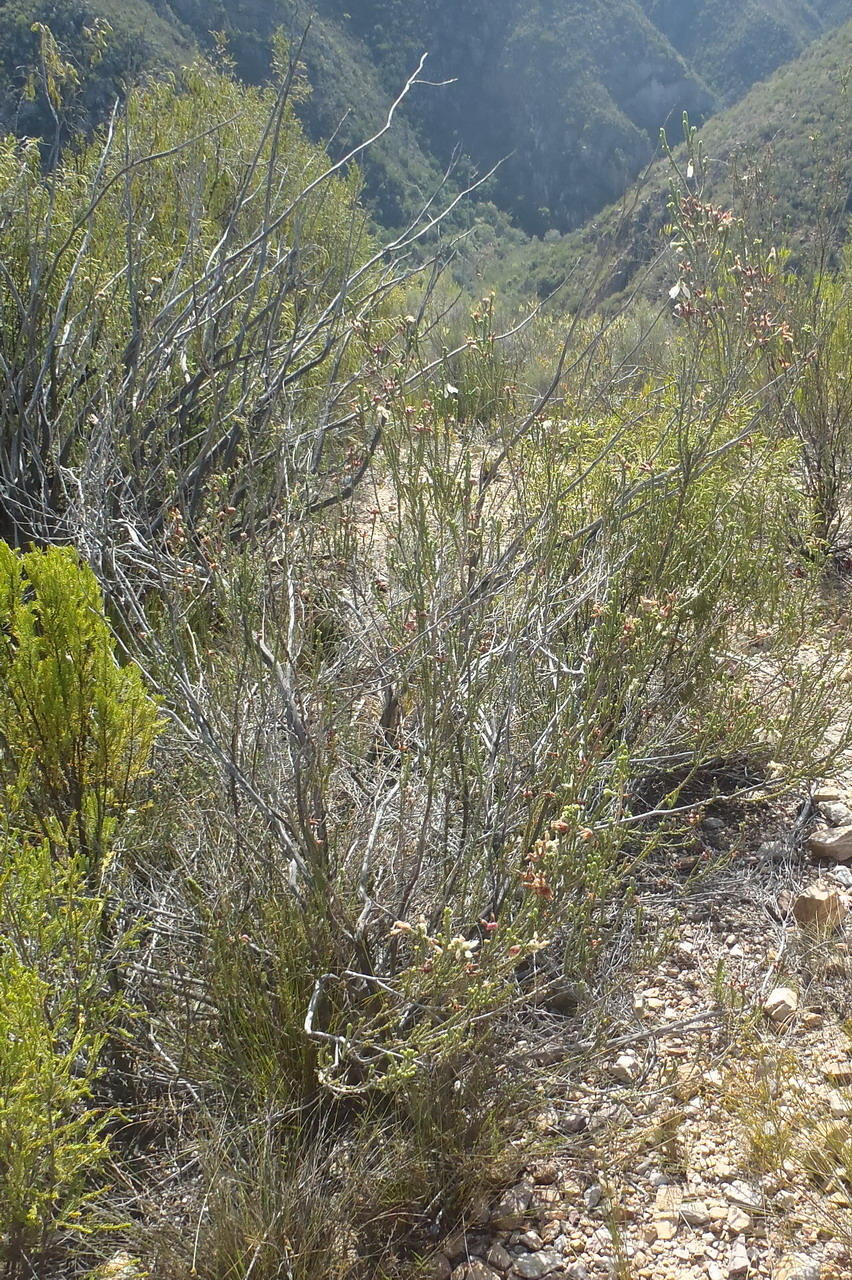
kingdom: Plantae
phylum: Tracheophyta
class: Magnoliopsida
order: Ericales
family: Ericaceae
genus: Erica
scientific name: Erica pectinifolia
